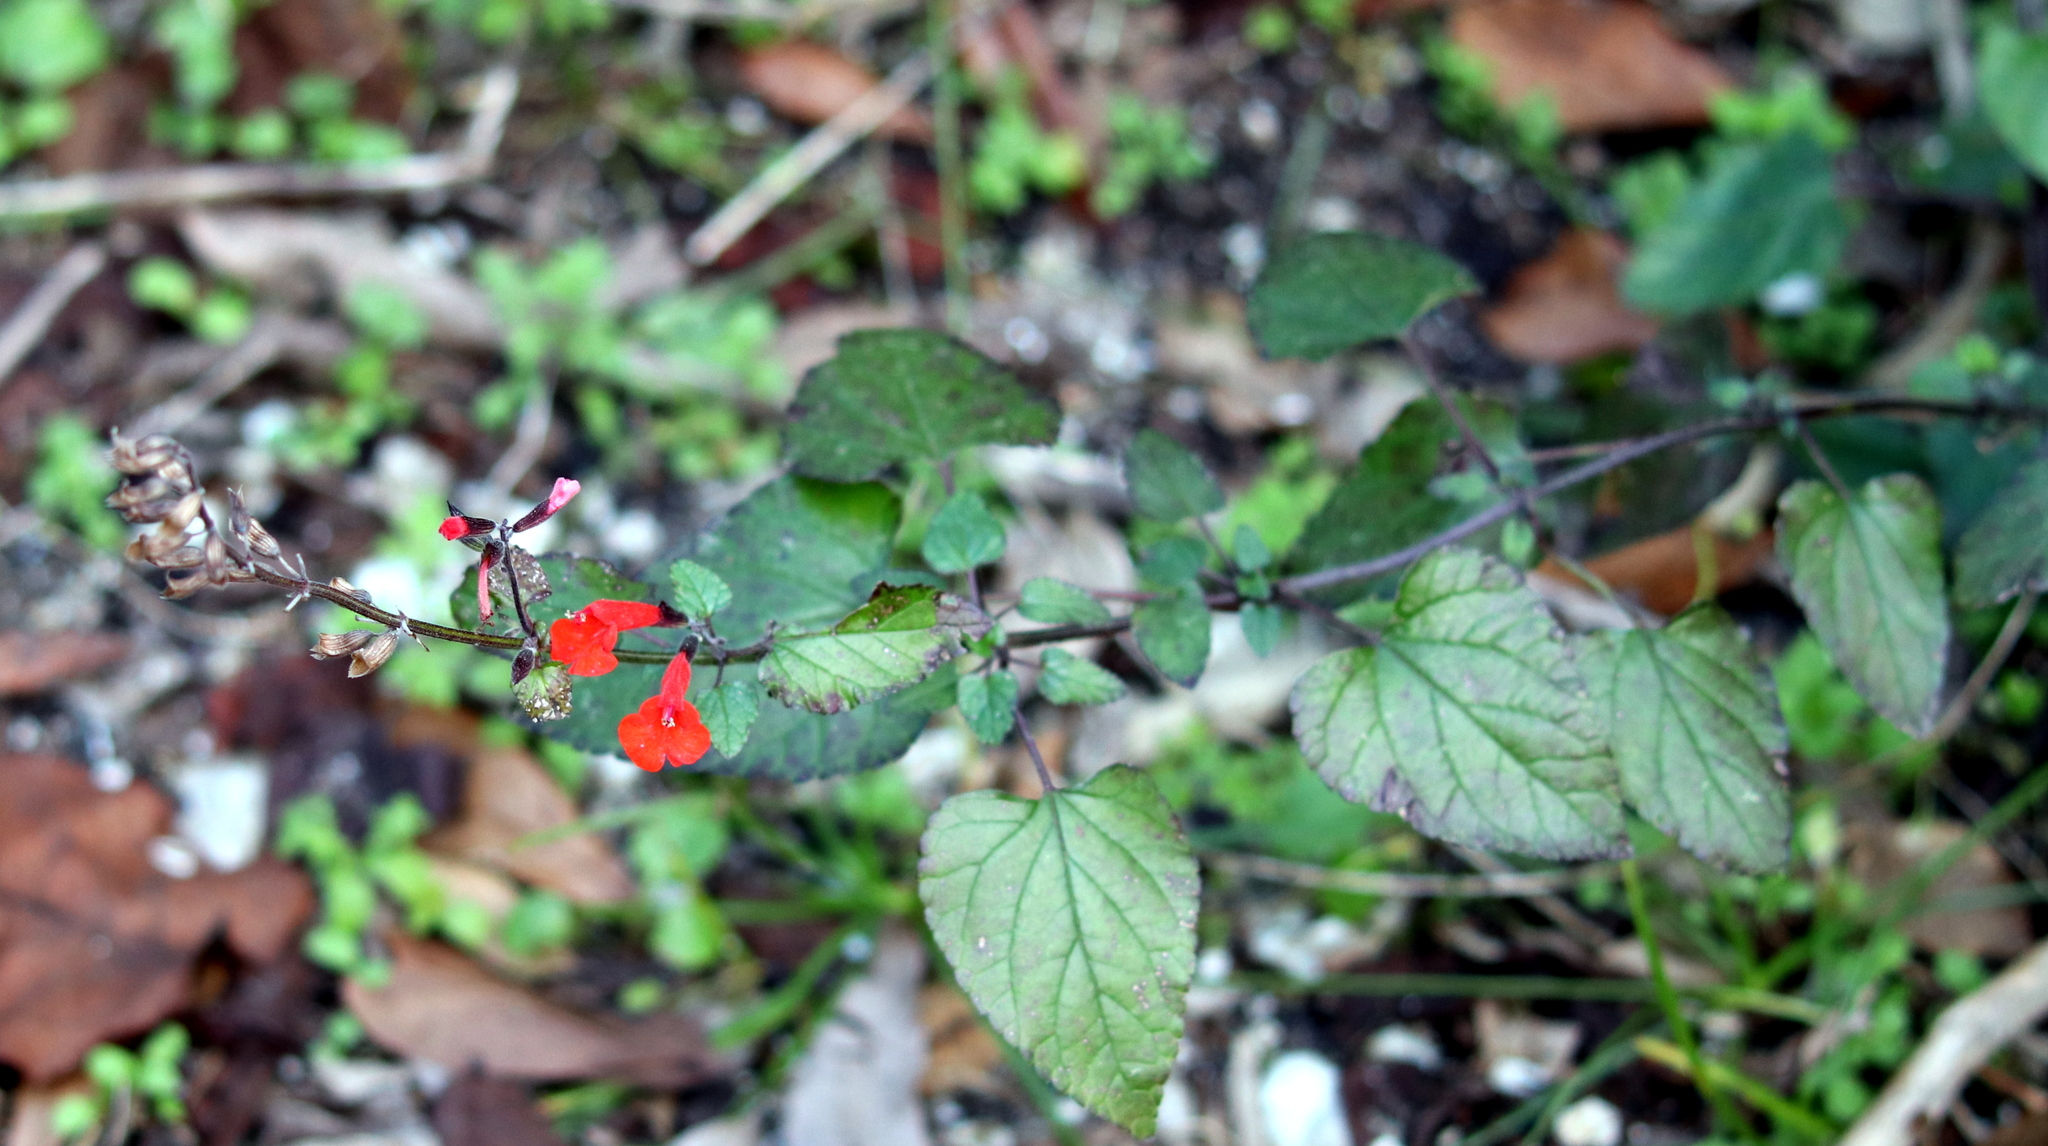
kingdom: Plantae
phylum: Tracheophyta
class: Magnoliopsida
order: Lamiales
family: Lamiaceae
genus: Salvia
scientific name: Salvia coccinea
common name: Blood sage
